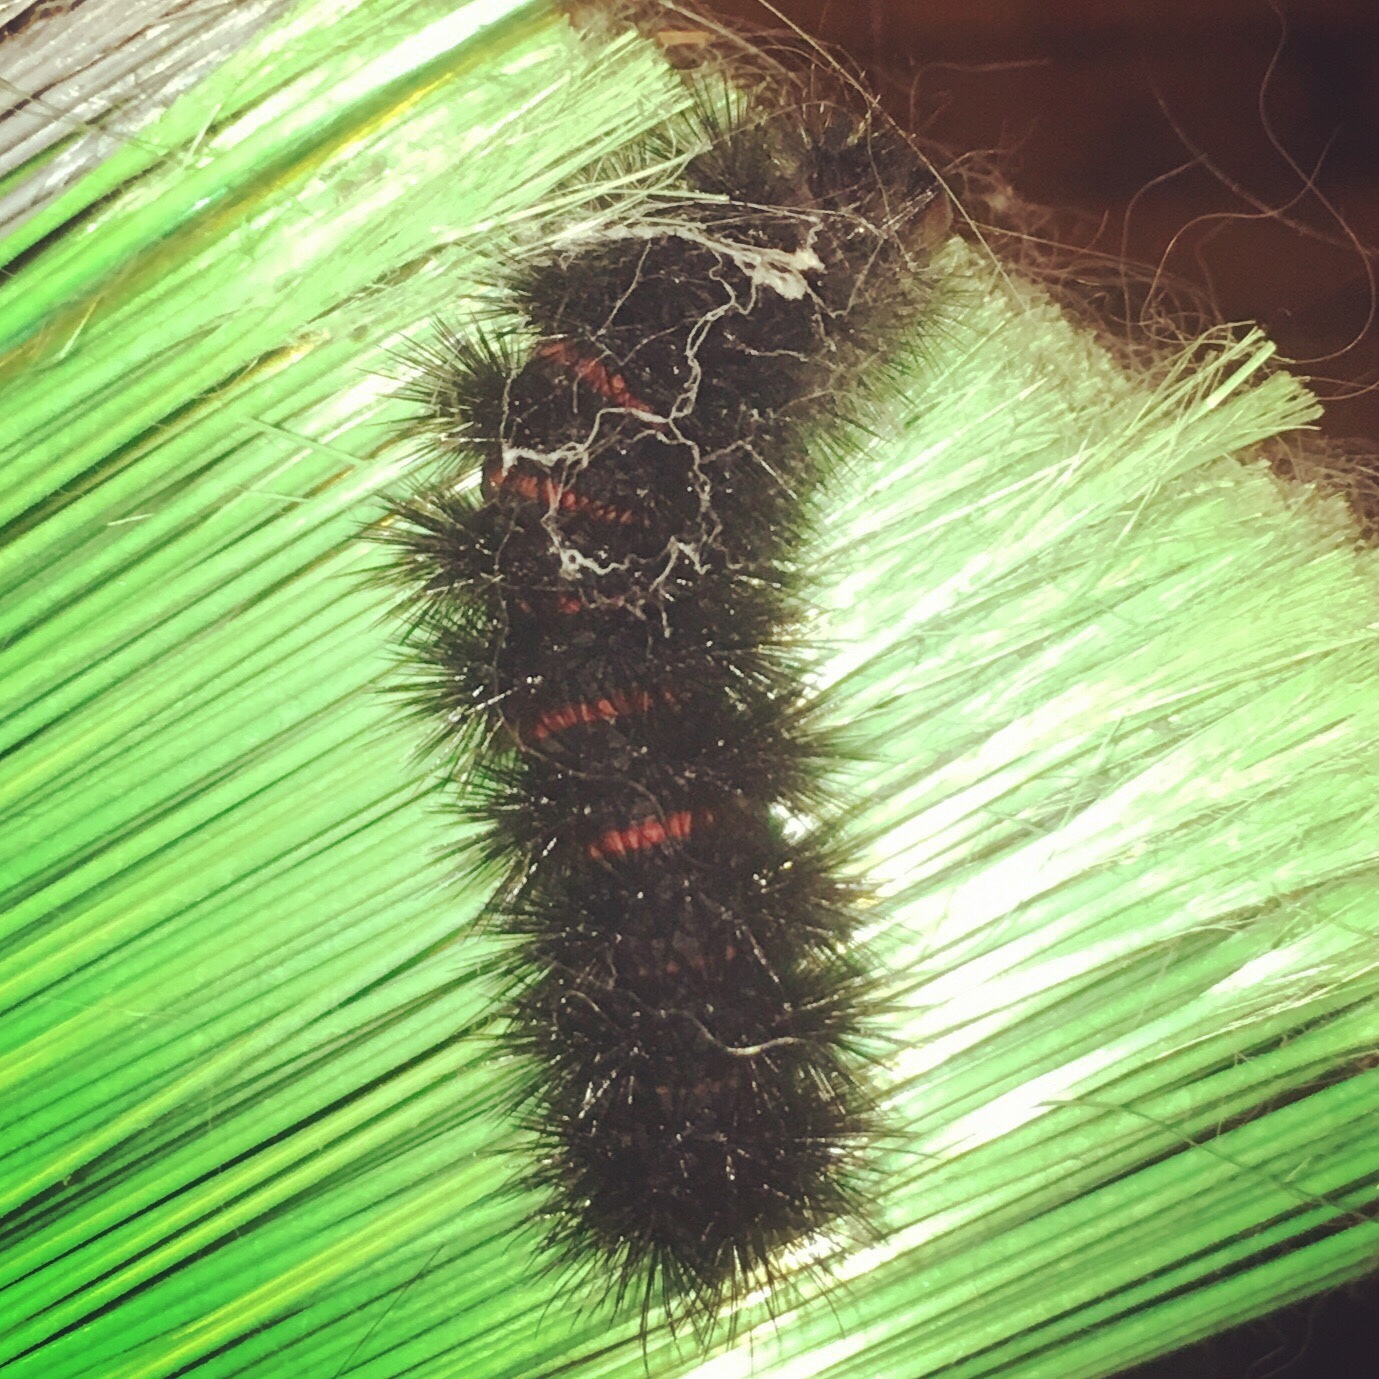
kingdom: Animalia
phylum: Arthropoda
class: Insecta
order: Lepidoptera
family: Erebidae
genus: Hypercompe
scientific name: Hypercompe scribonia
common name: Giant leopard moth
